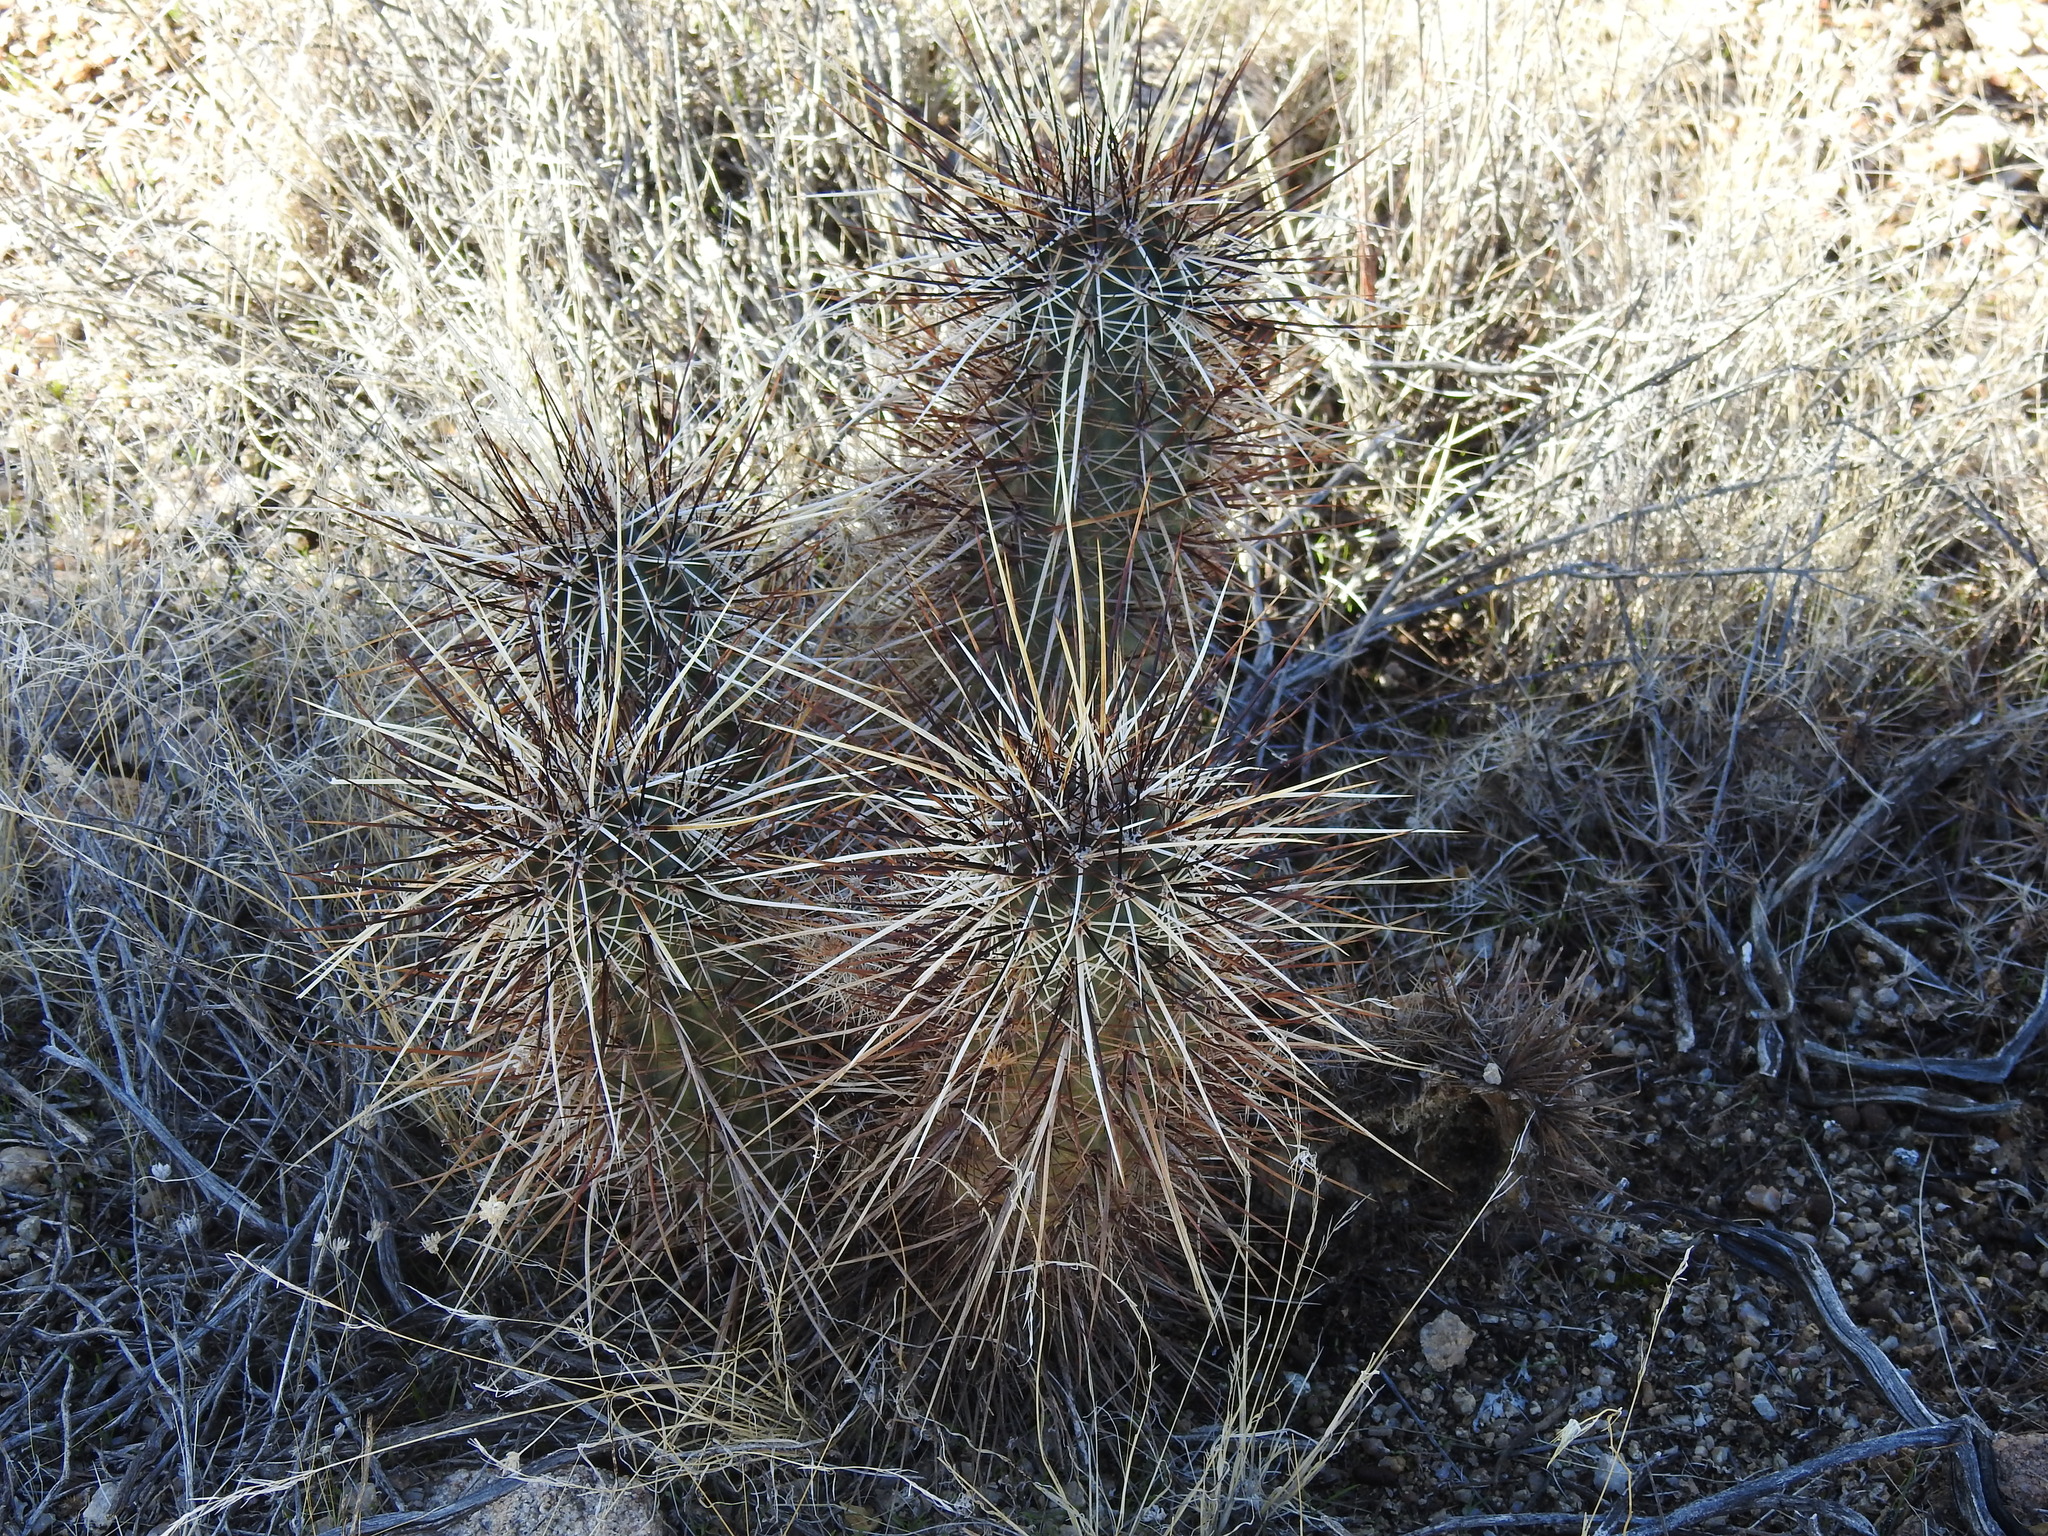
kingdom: Plantae
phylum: Tracheophyta
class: Magnoliopsida
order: Caryophyllales
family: Cactaceae
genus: Echinocereus
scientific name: Echinocereus engelmannii
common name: Engelmann's hedgehog cactus
